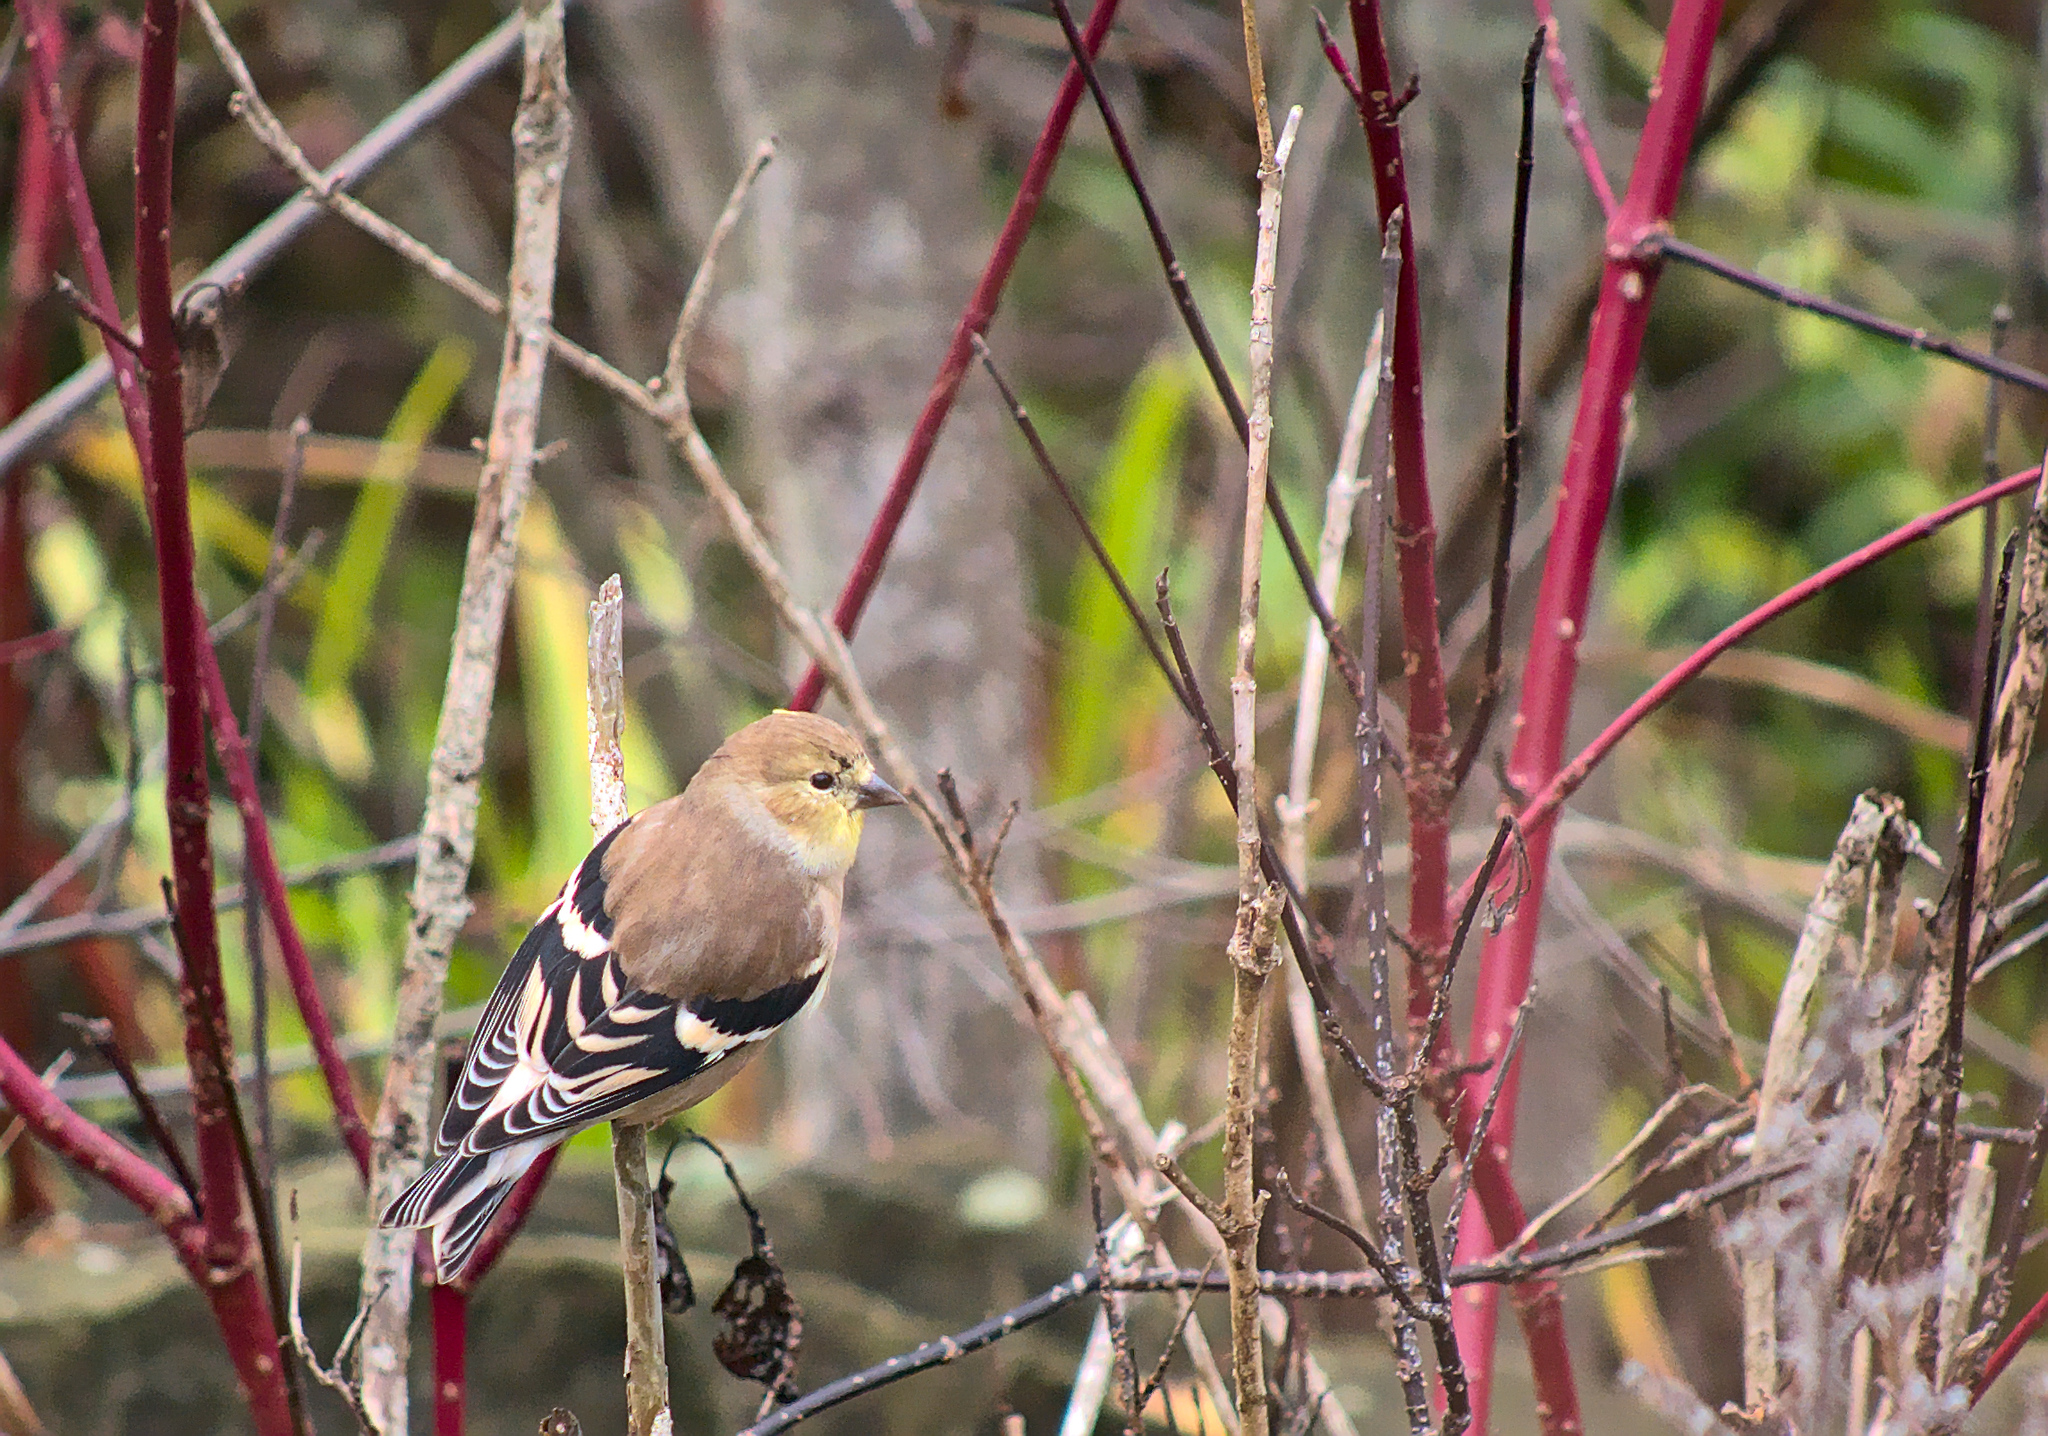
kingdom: Animalia
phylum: Chordata
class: Aves
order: Passeriformes
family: Fringillidae
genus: Spinus
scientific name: Spinus tristis
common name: American goldfinch
